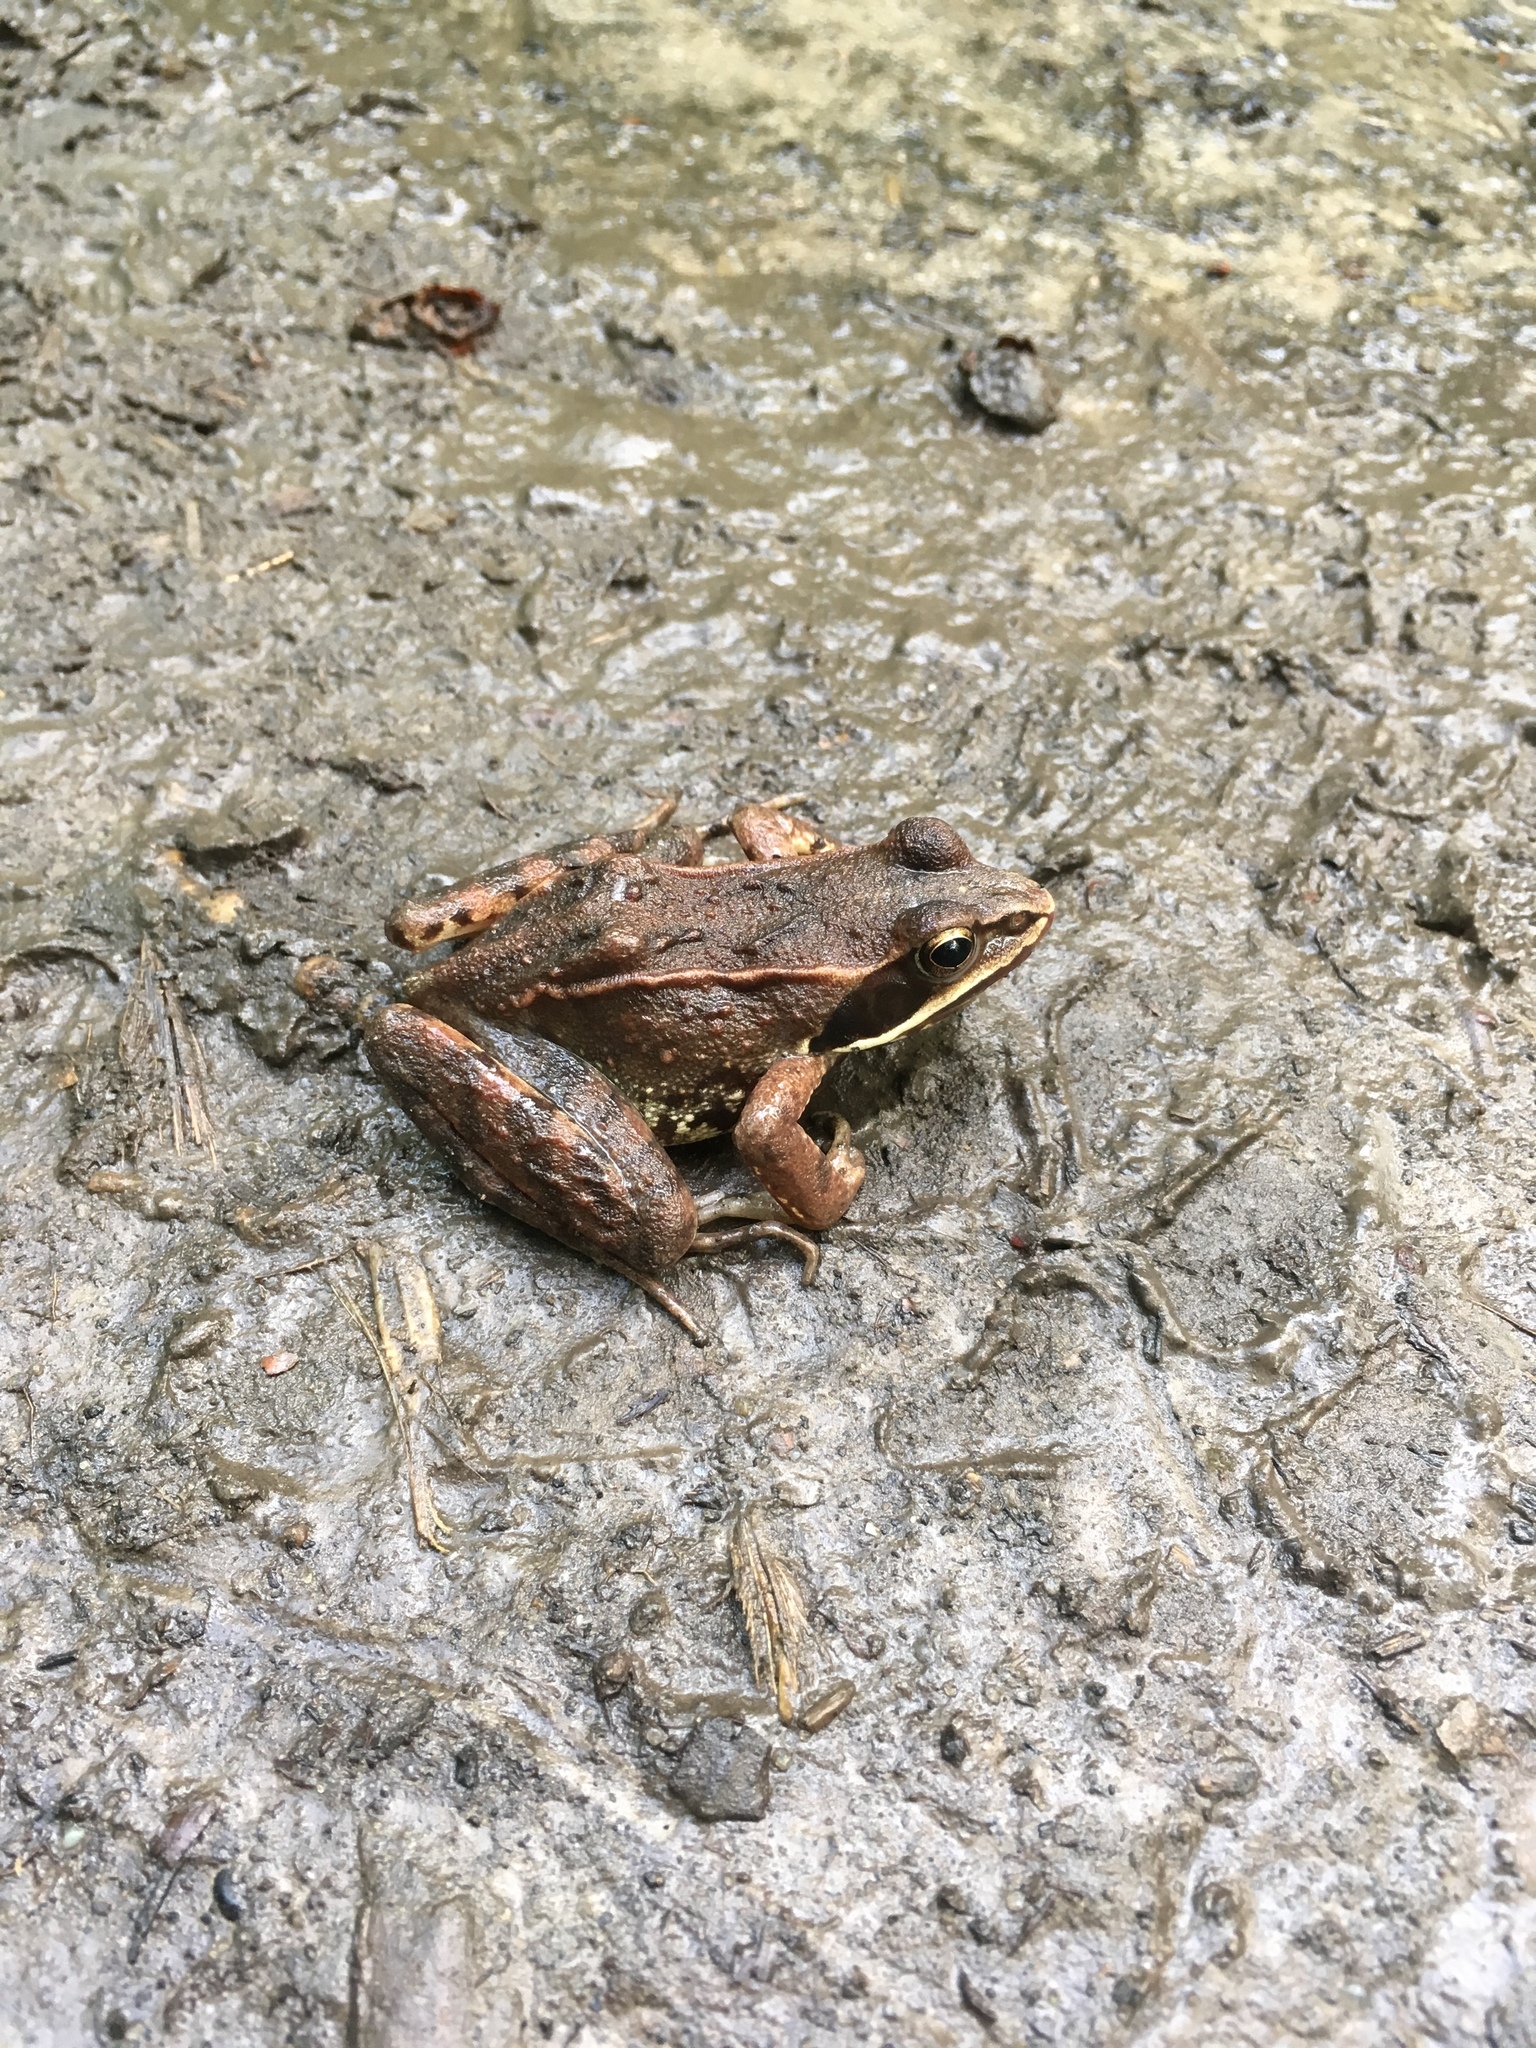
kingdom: Animalia
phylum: Chordata
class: Amphibia
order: Anura
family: Ranidae
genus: Rana
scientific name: Rana arvalis
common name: Moor frog
